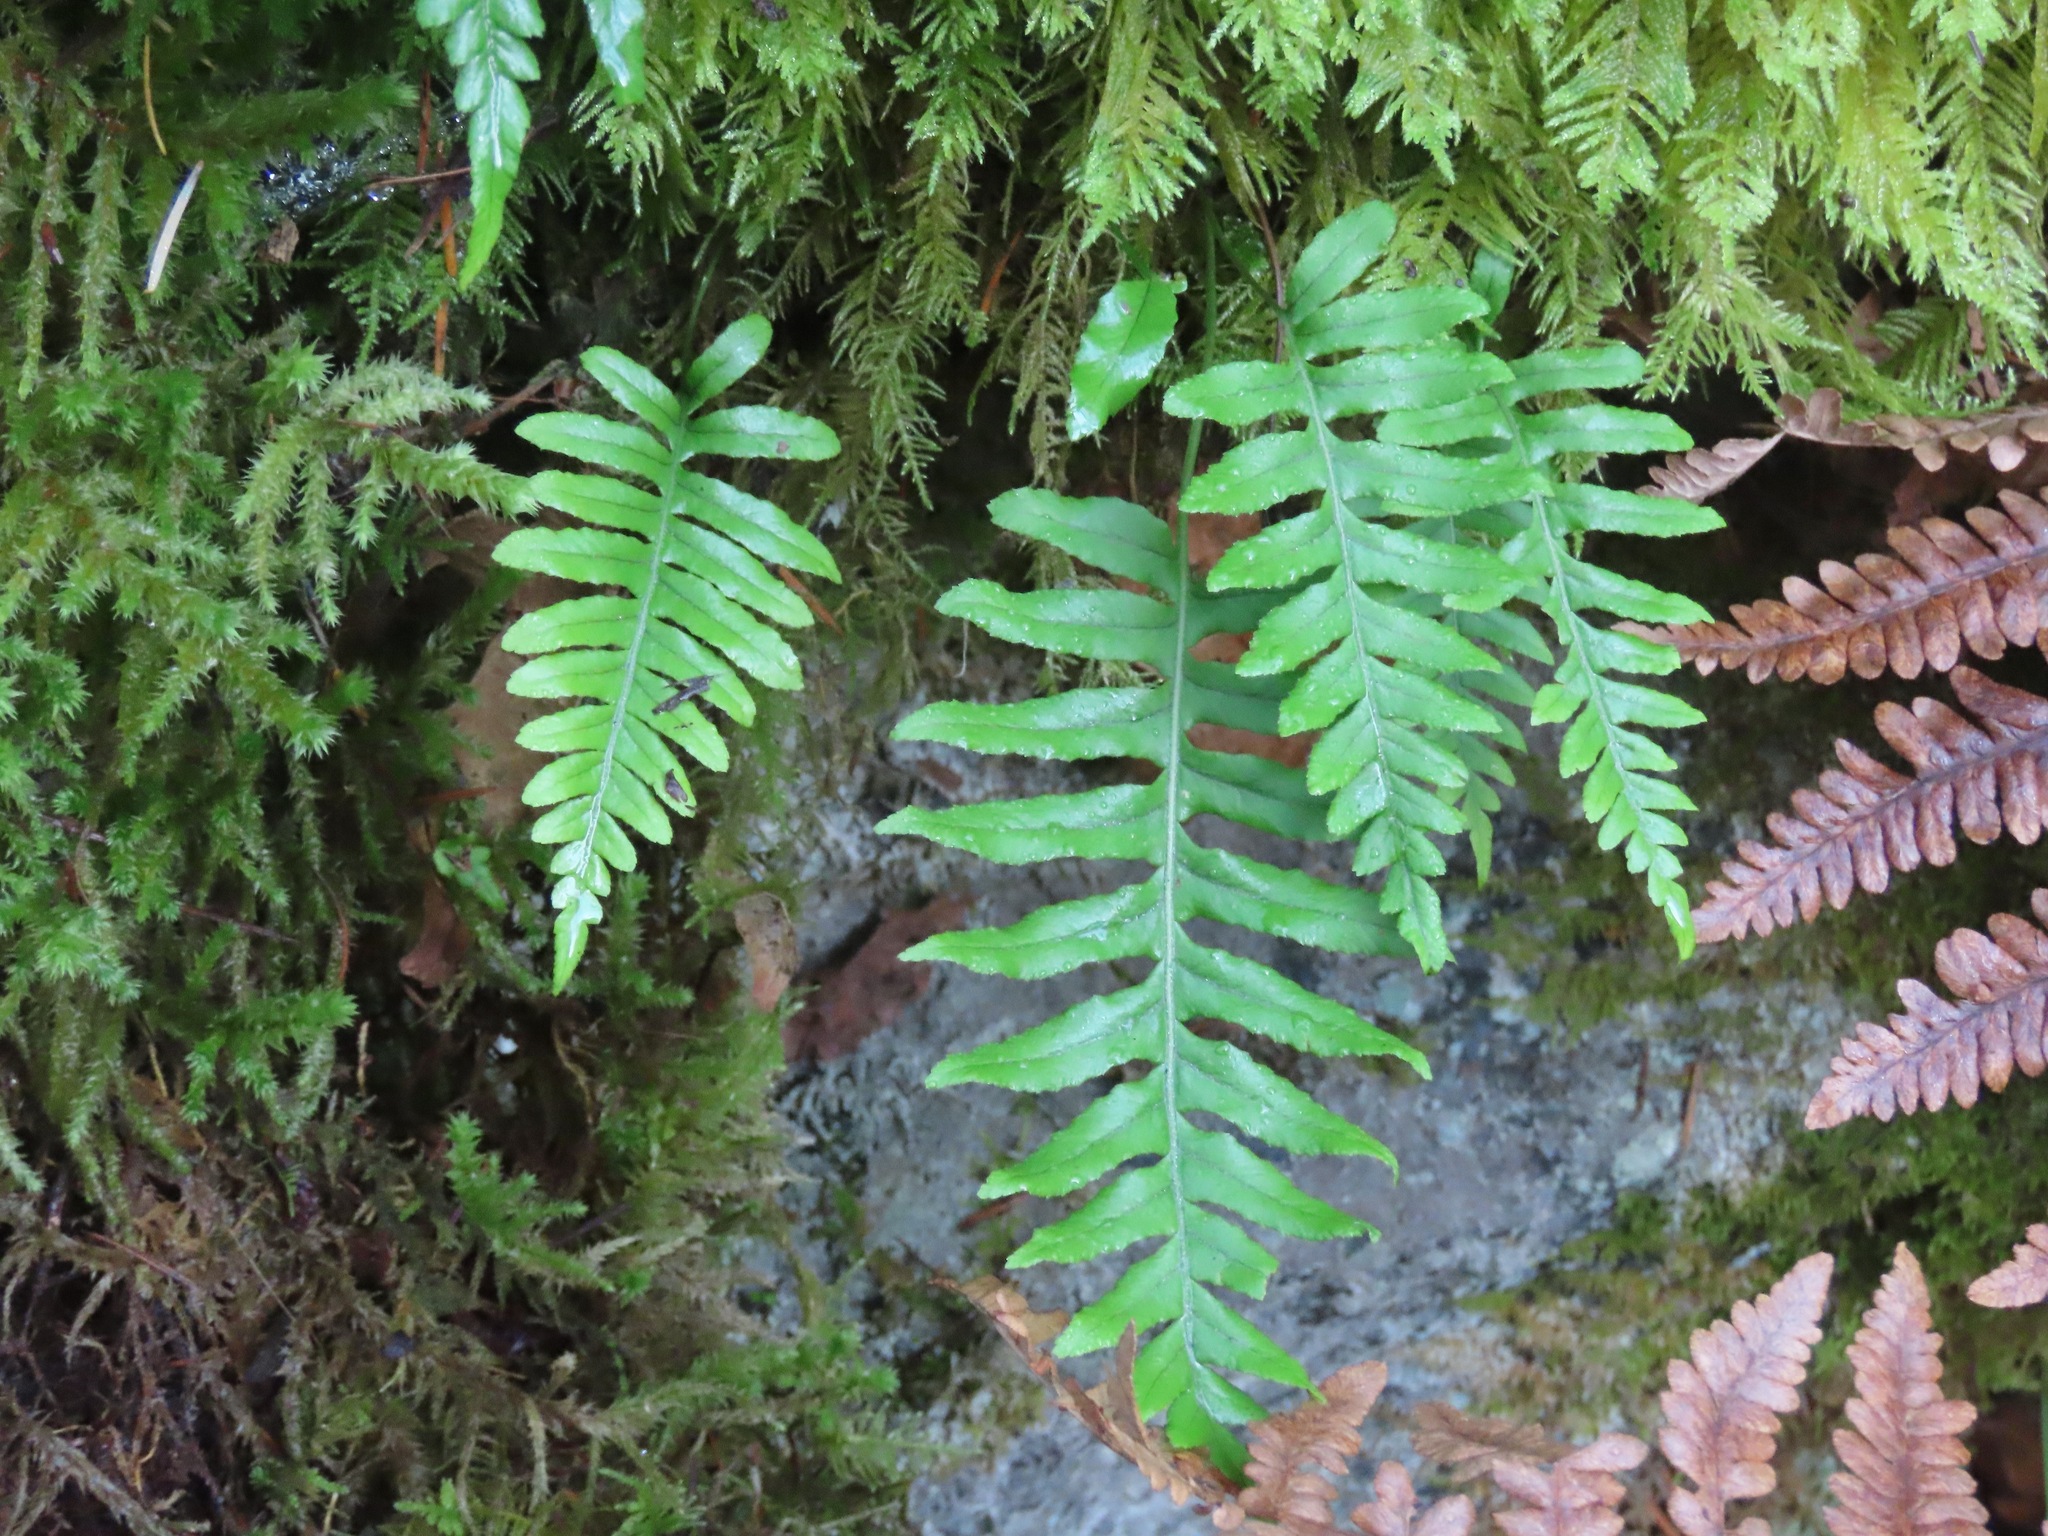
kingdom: Plantae
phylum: Tracheophyta
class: Polypodiopsida
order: Polypodiales
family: Polypodiaceae
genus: Polypodium
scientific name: Polypodium glycyrrhiza
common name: Licorice fern
